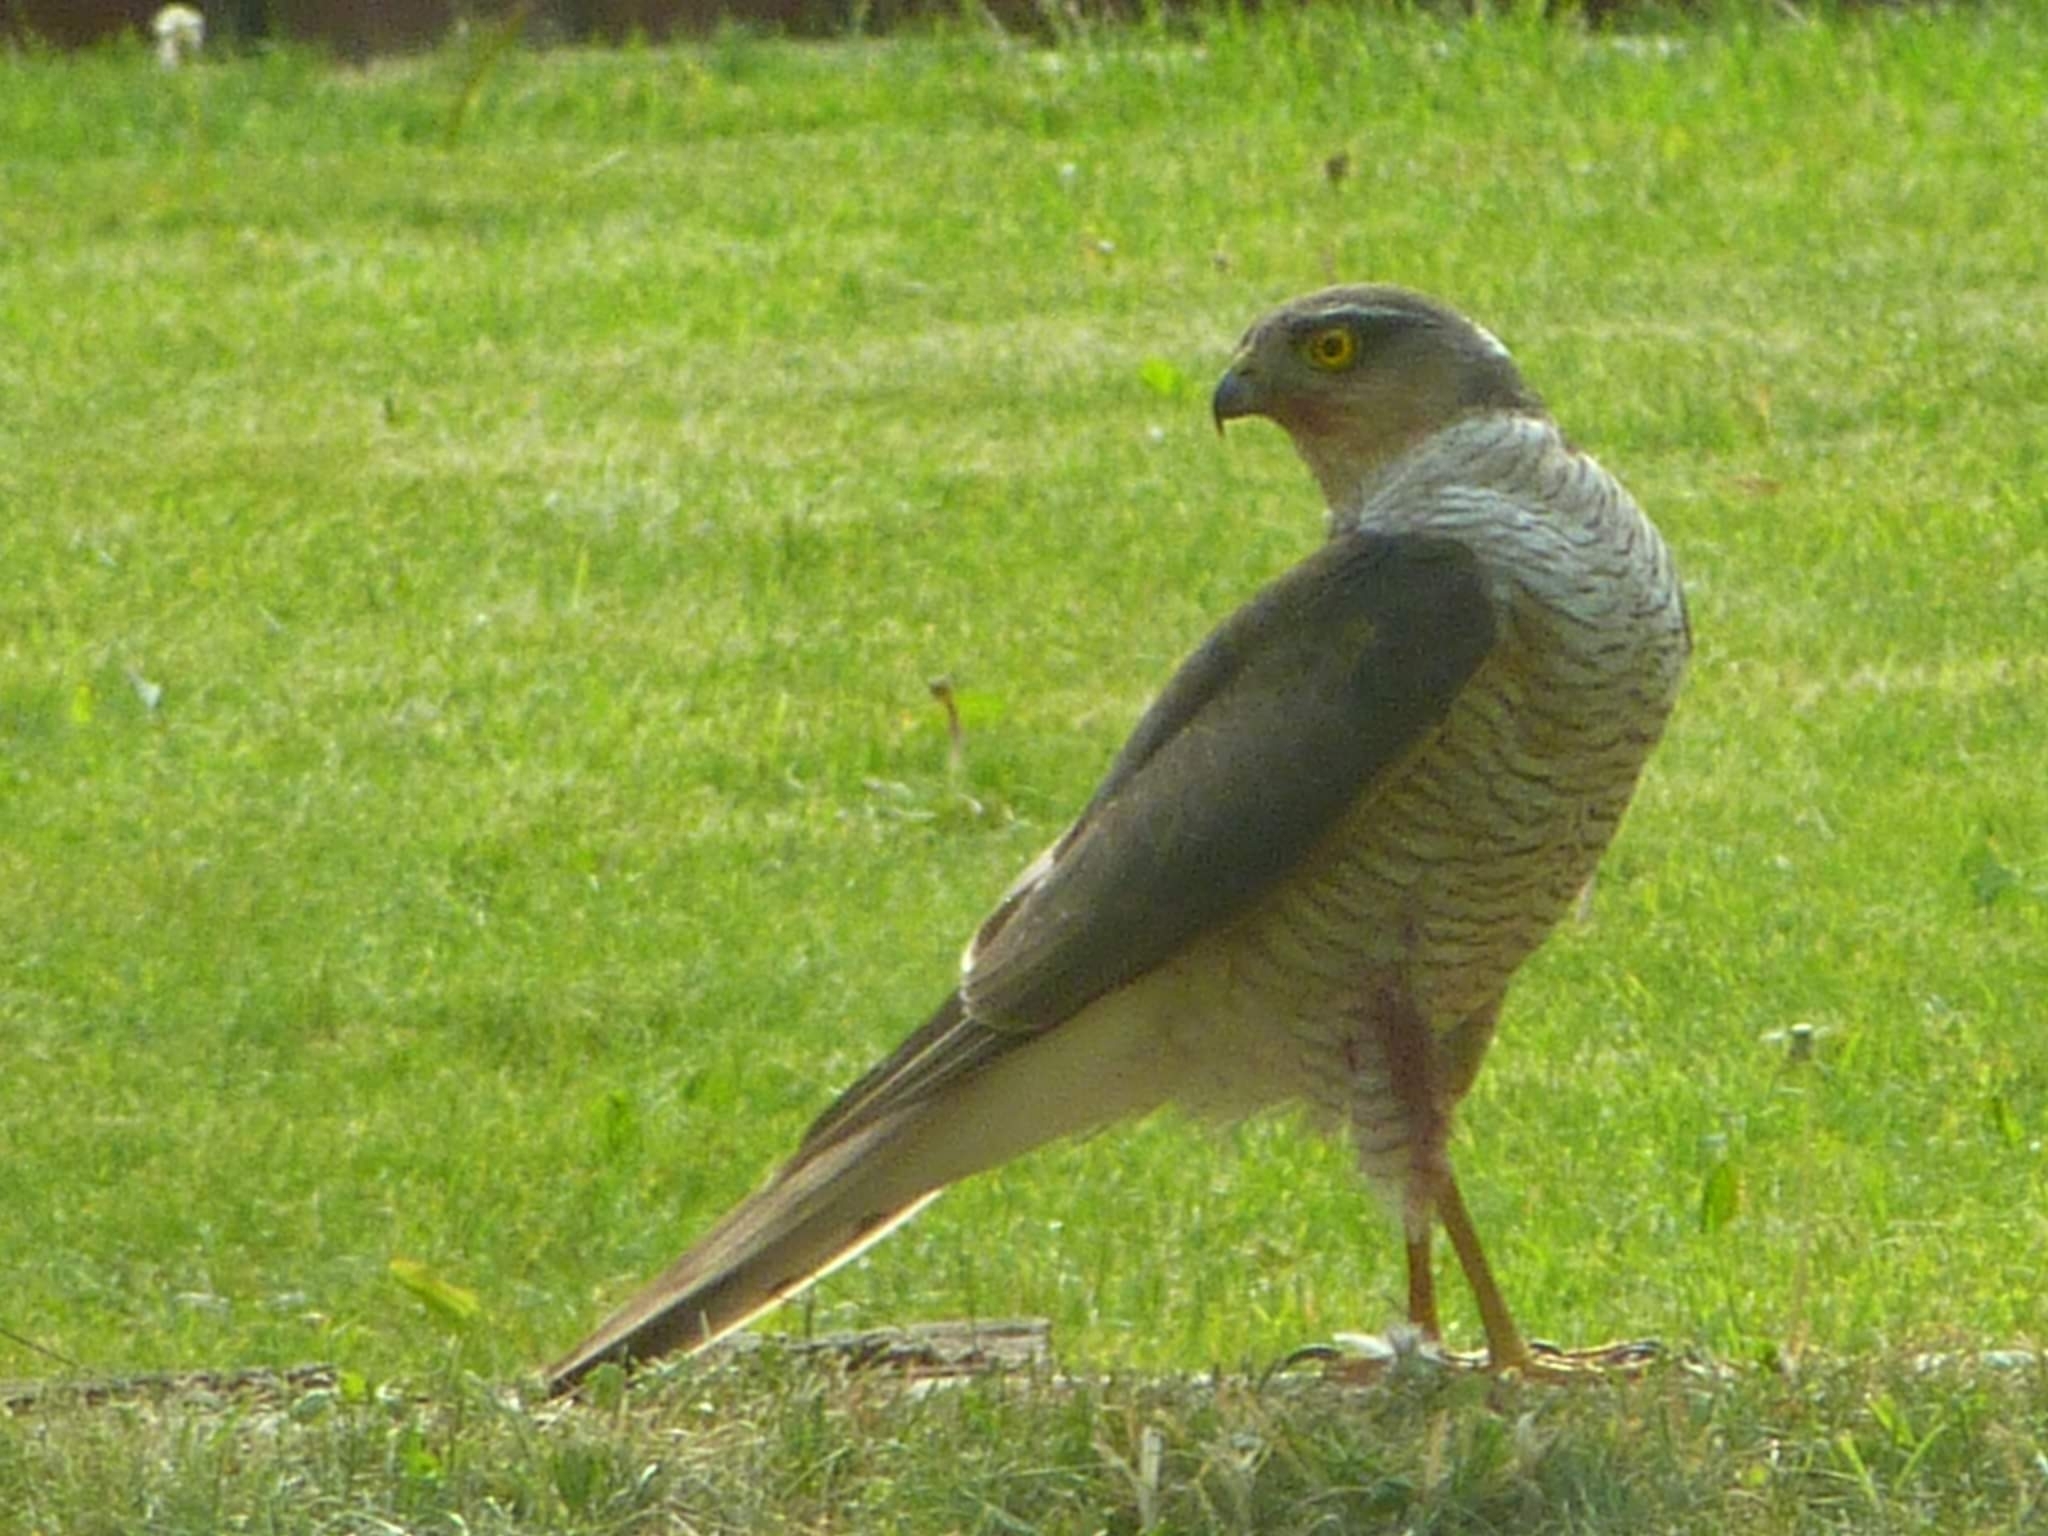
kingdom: Animalia
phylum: Chordata
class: Aves
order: Accipitriformes
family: Accipitridae
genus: Accipiter
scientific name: Accipiter nisus
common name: Eurasian sparrowhawk
